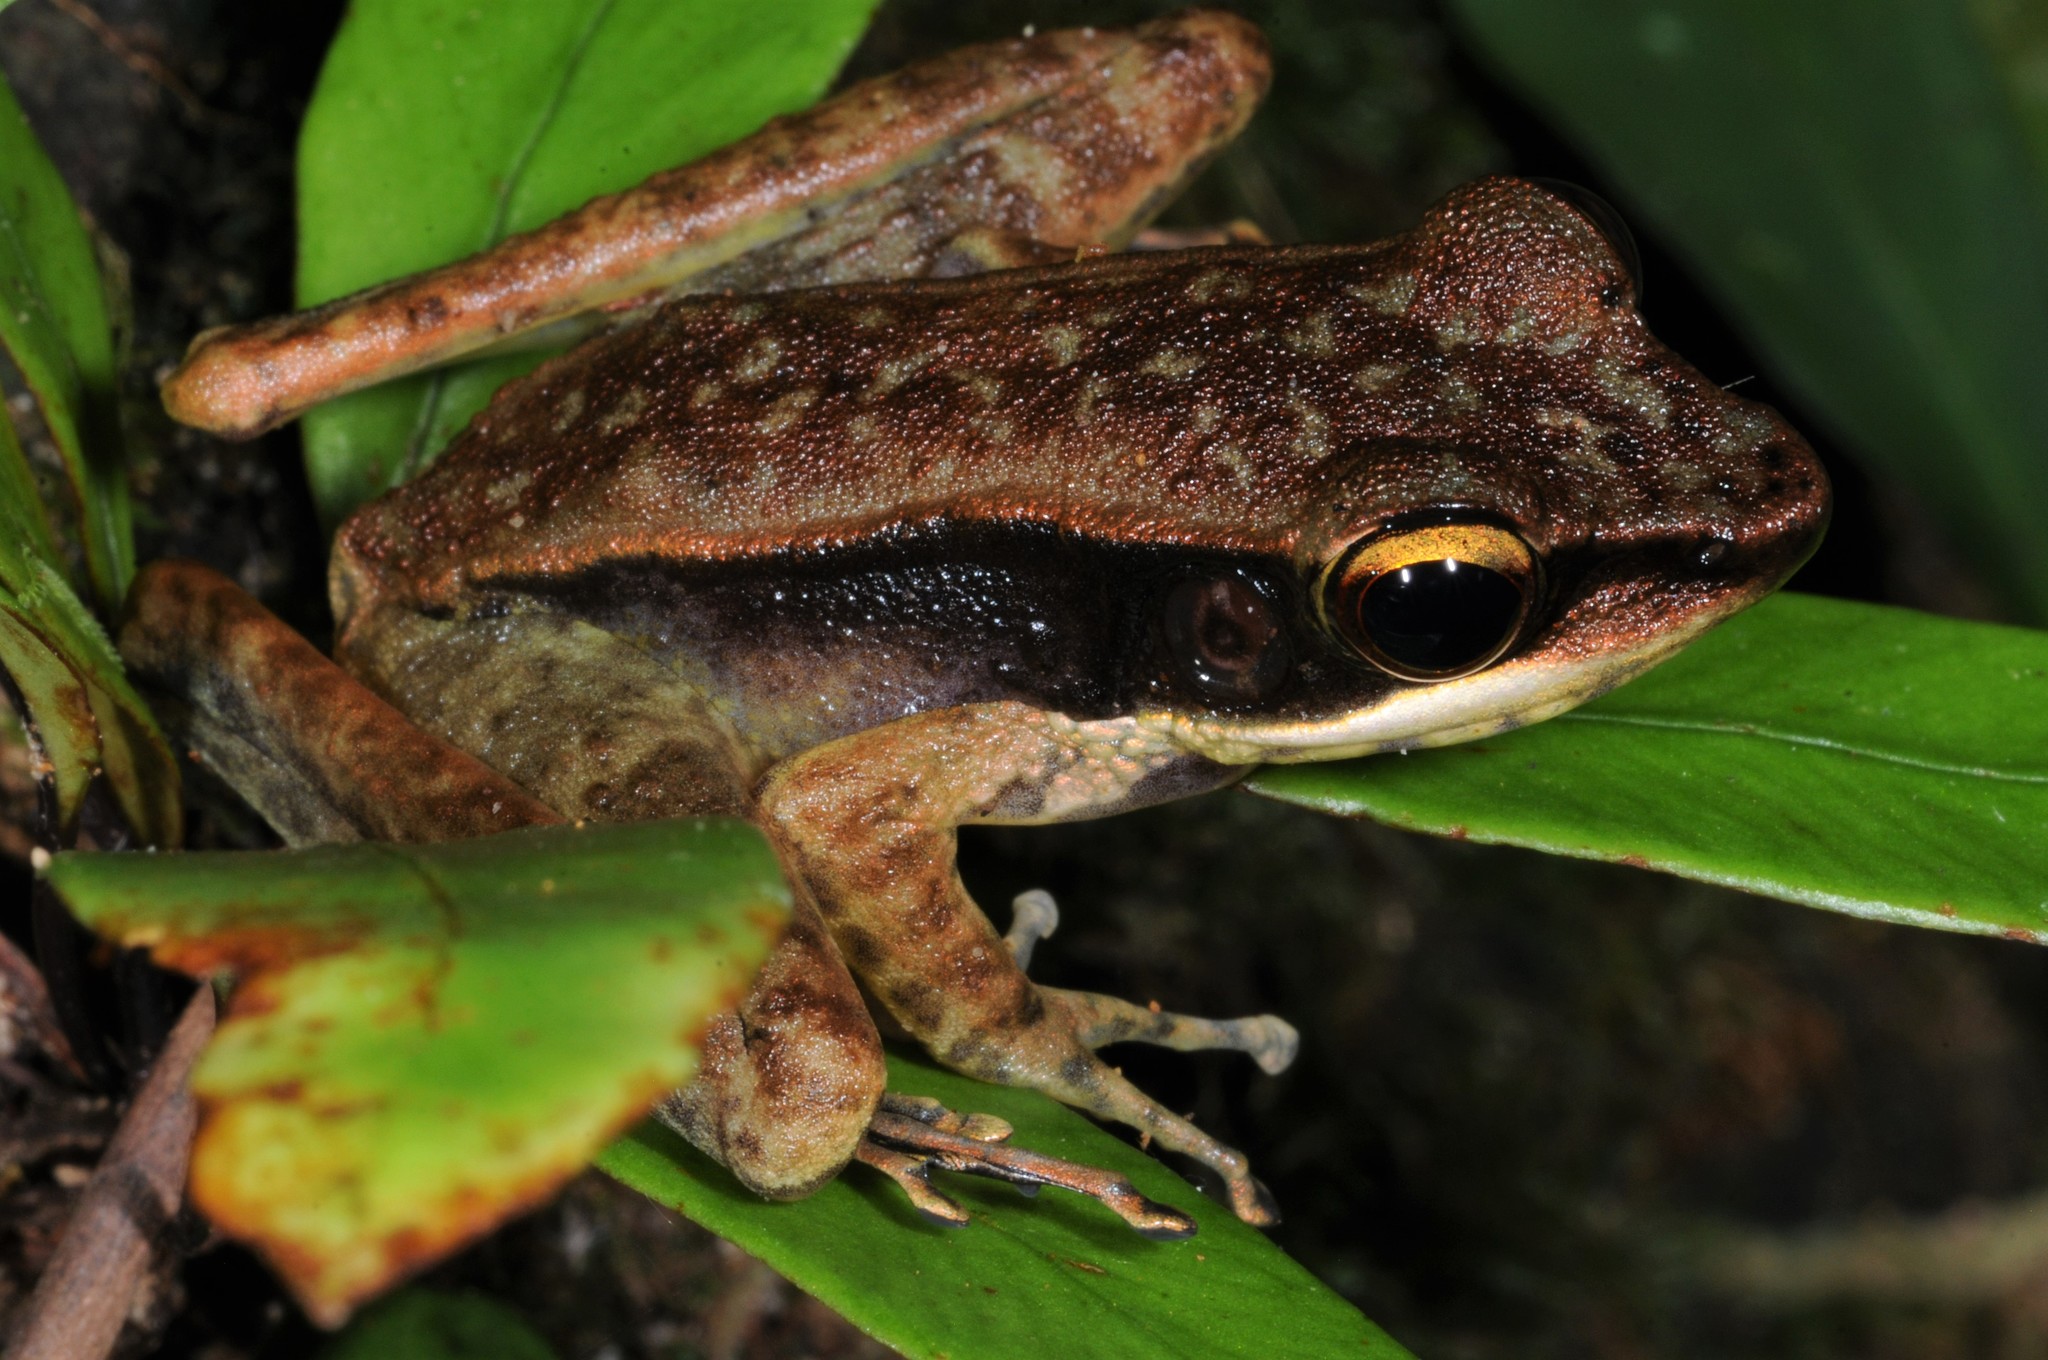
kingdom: Animalia
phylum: Chordata
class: Amphibia
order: Anura
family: Ranidae
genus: Meristogenys
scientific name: Meristogenys jerboa
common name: Gunther's borneo frog
